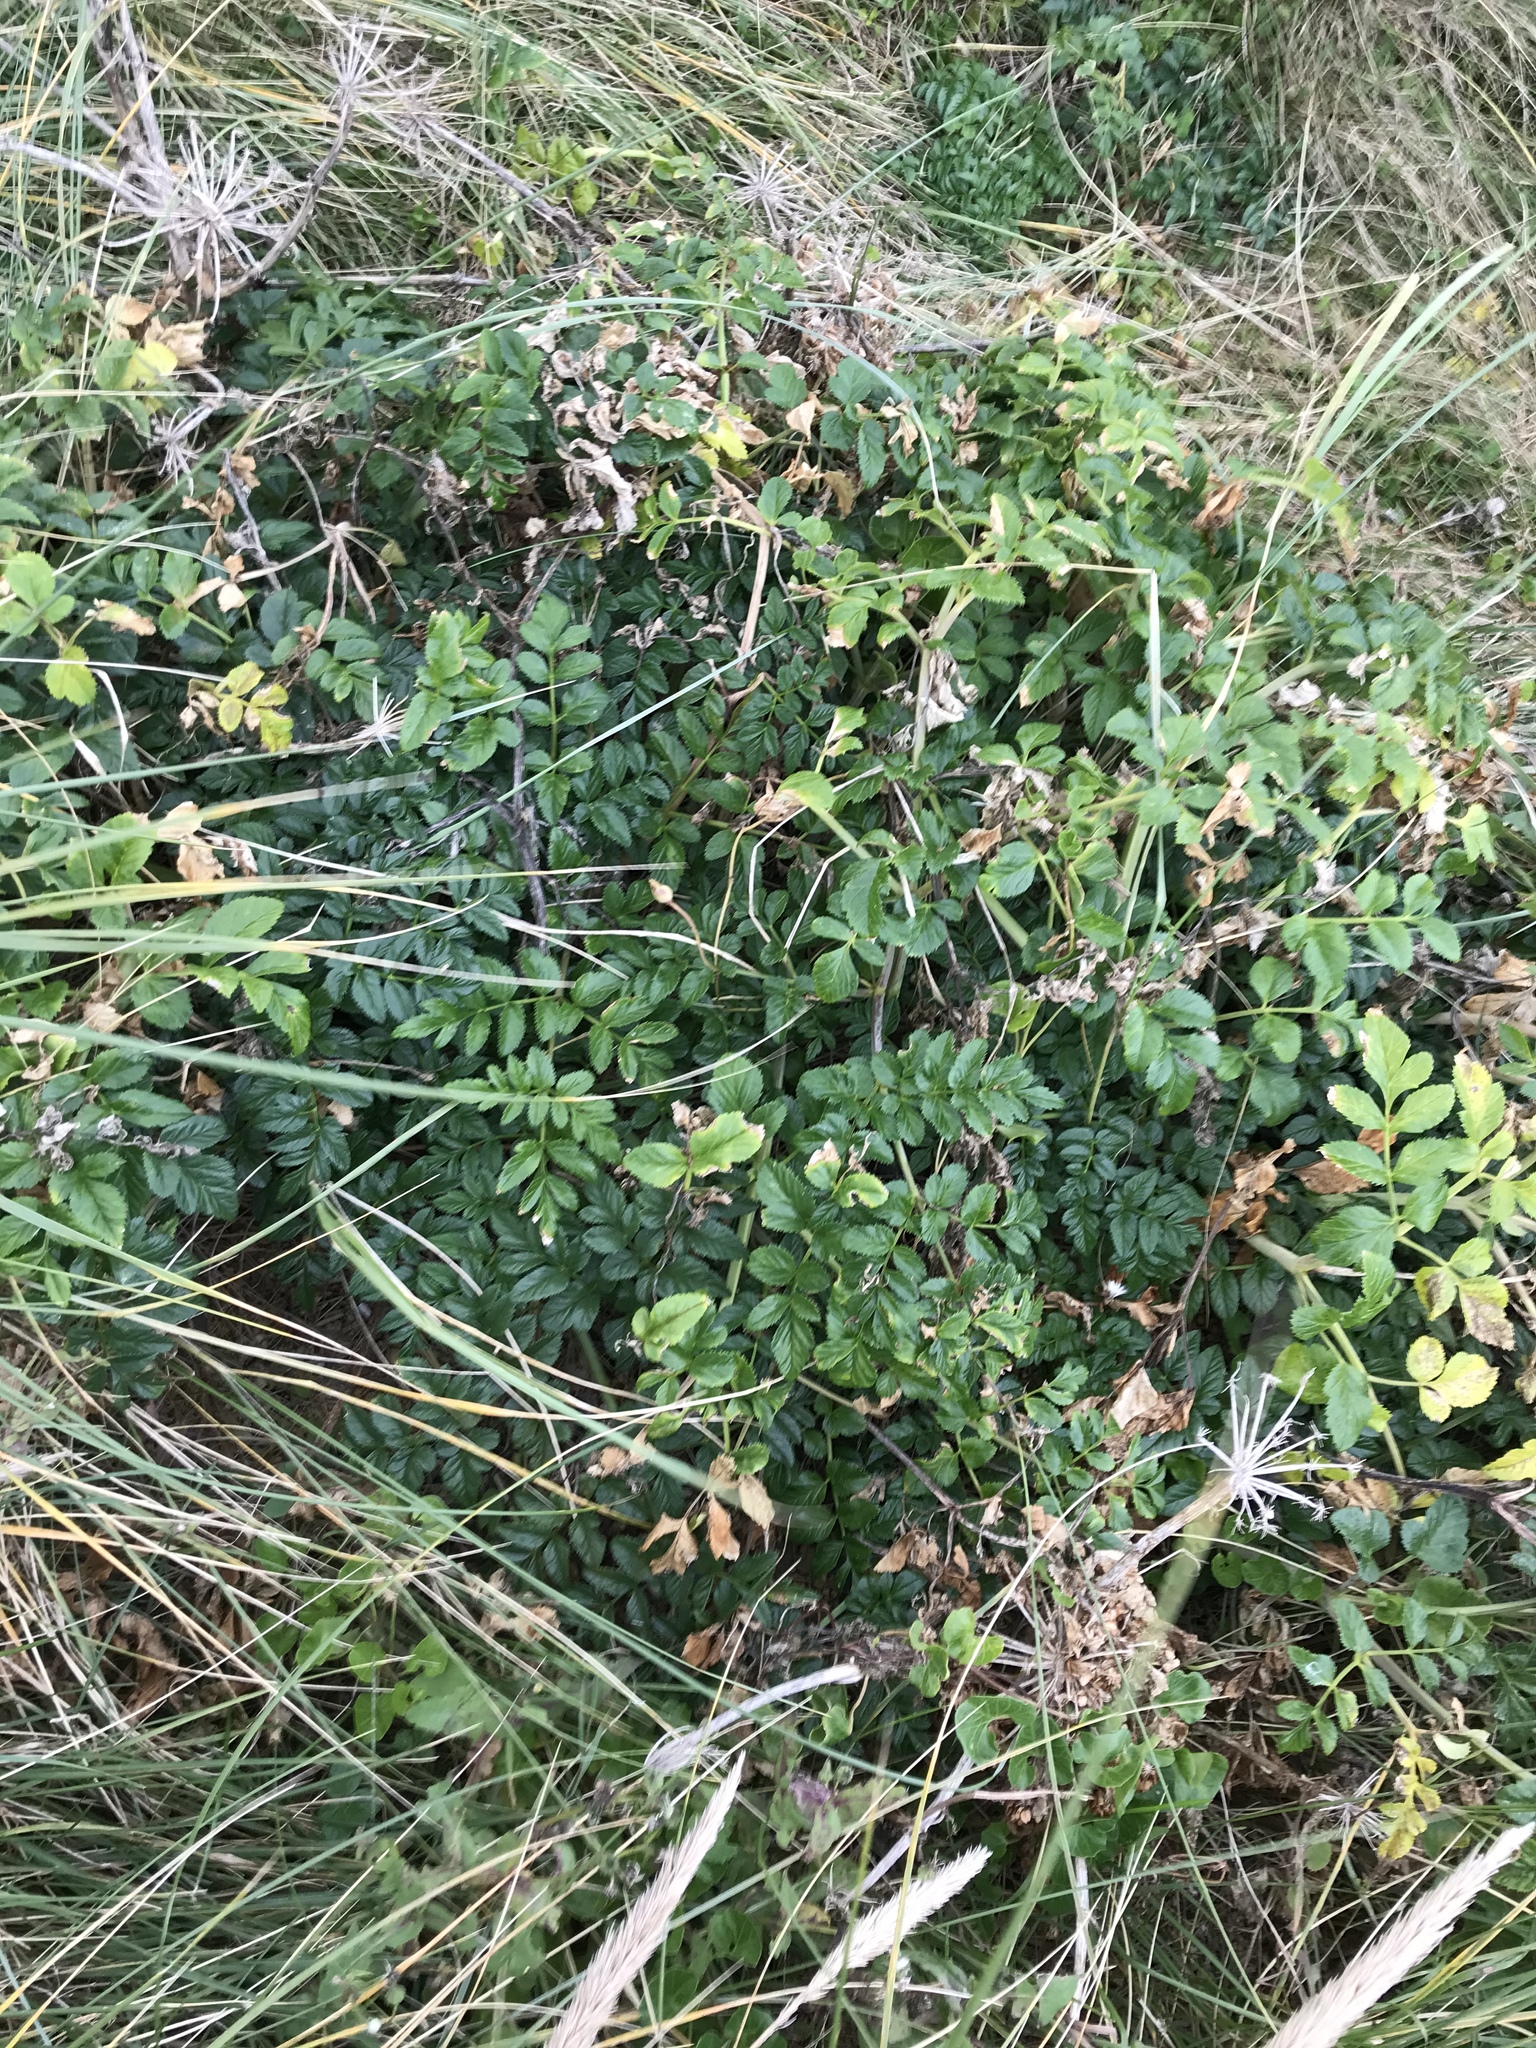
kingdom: Plantae
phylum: Tracheophyta
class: Magnoliopsida
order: Apiales
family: Apiaceae
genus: Angelica
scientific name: Angelica pachycarpa
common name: Portuguese angelica
